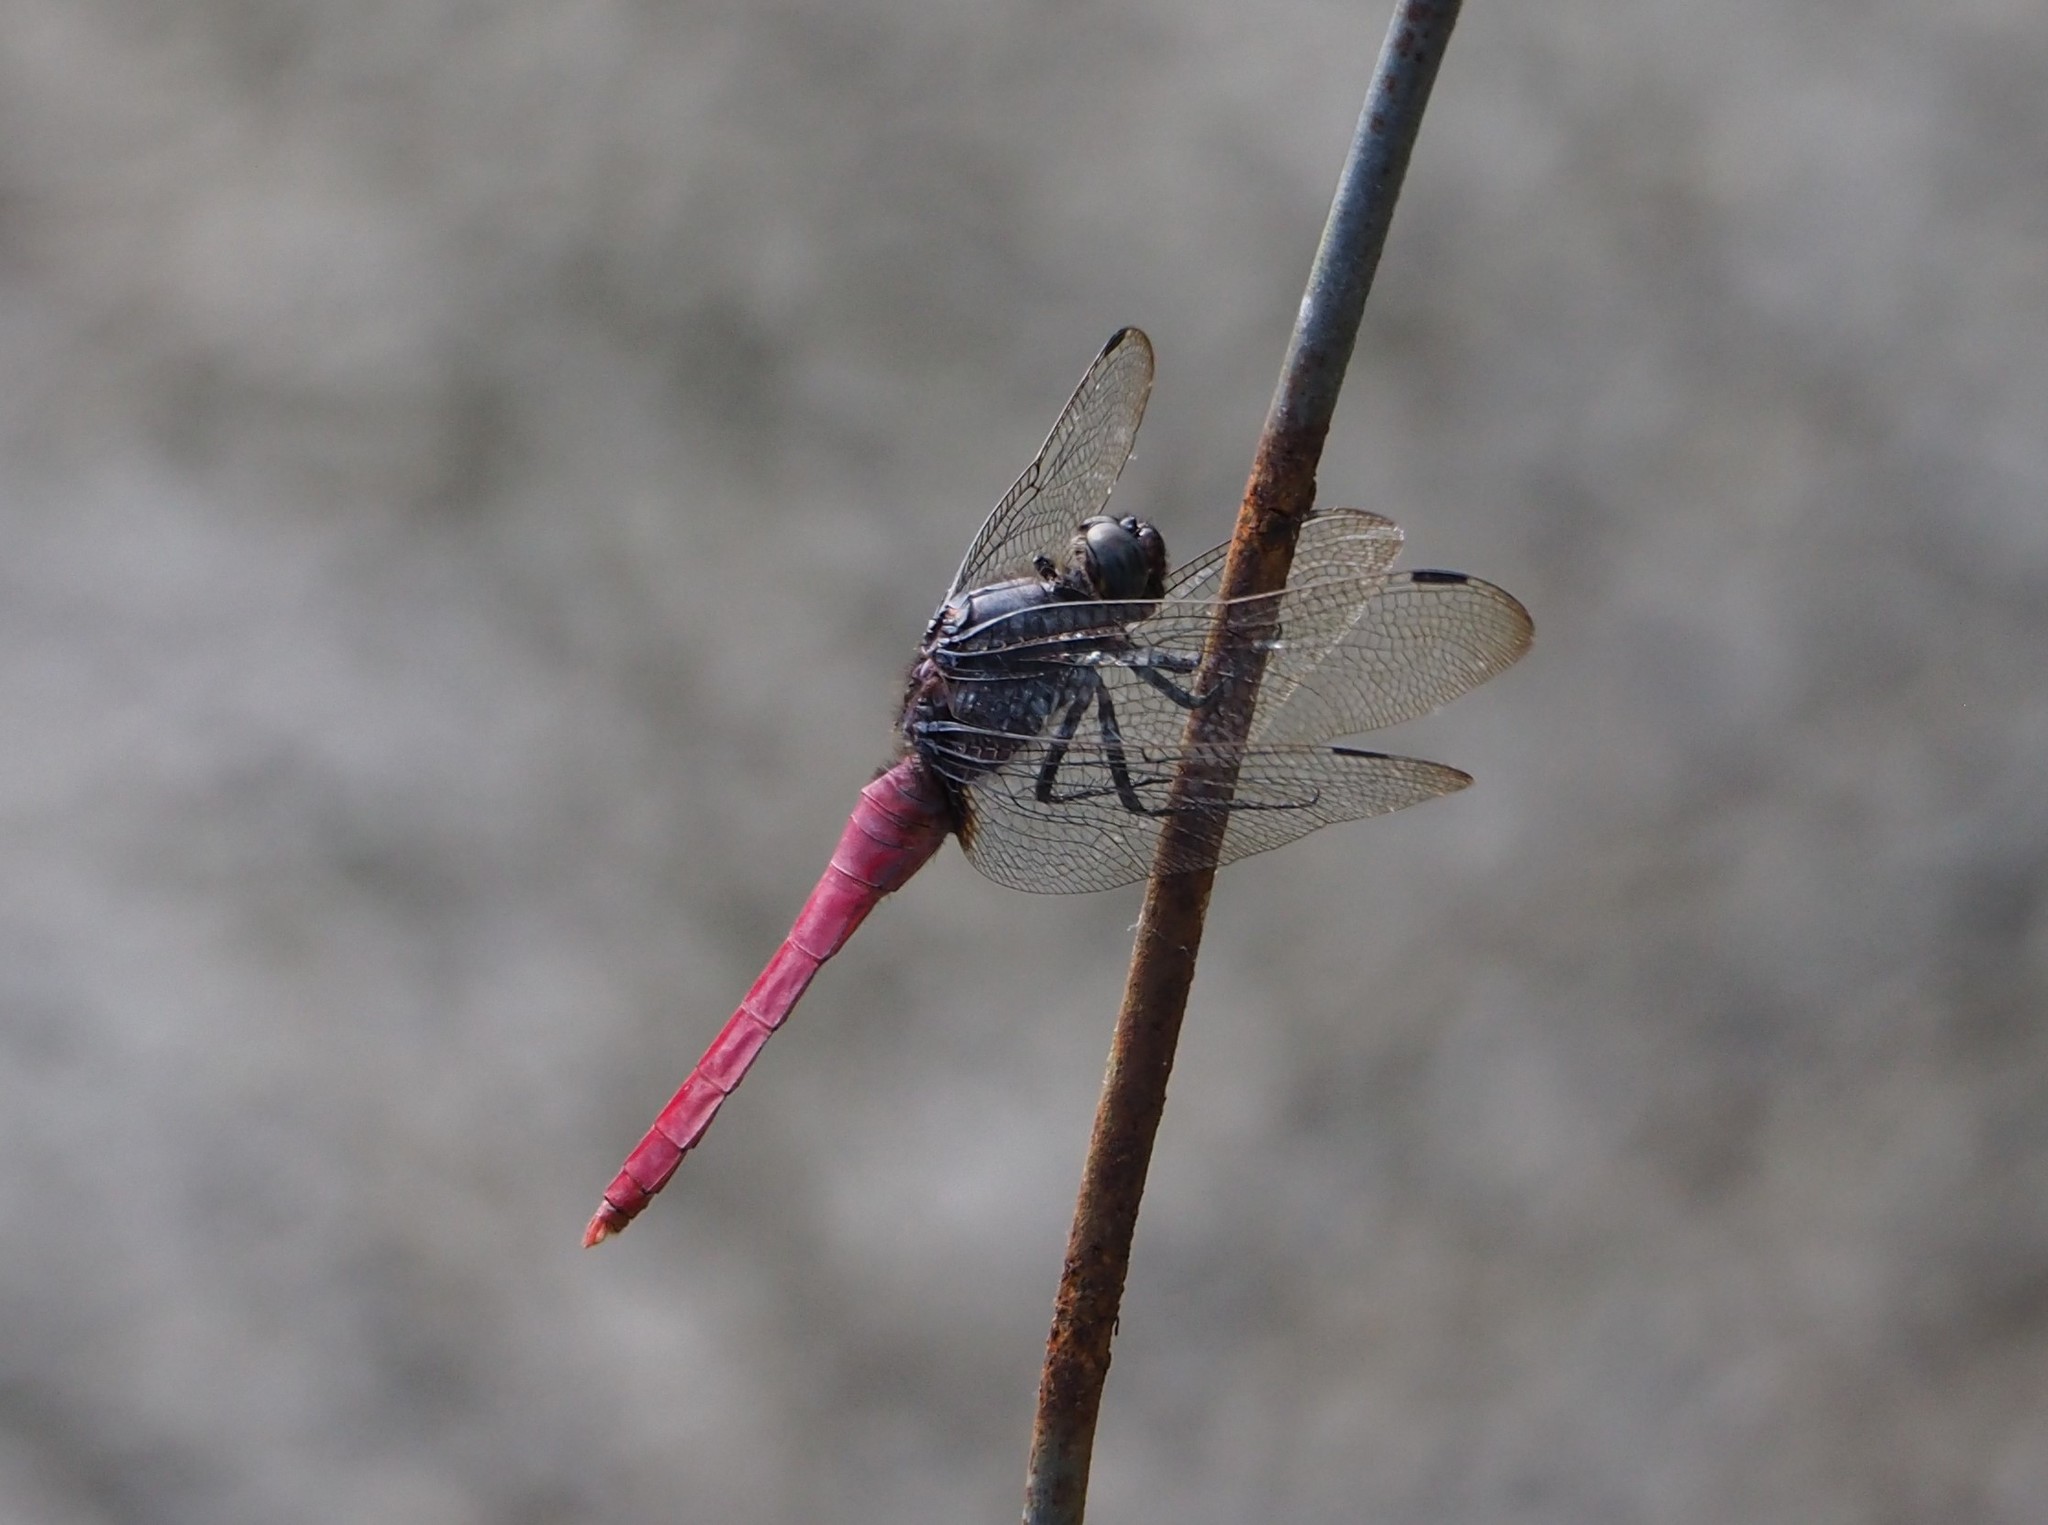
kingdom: Animalia
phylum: Arthropoda
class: Insecta
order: Odonata
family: Libellulidae
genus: Orthetrum
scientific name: Orthetrum pruinosum
